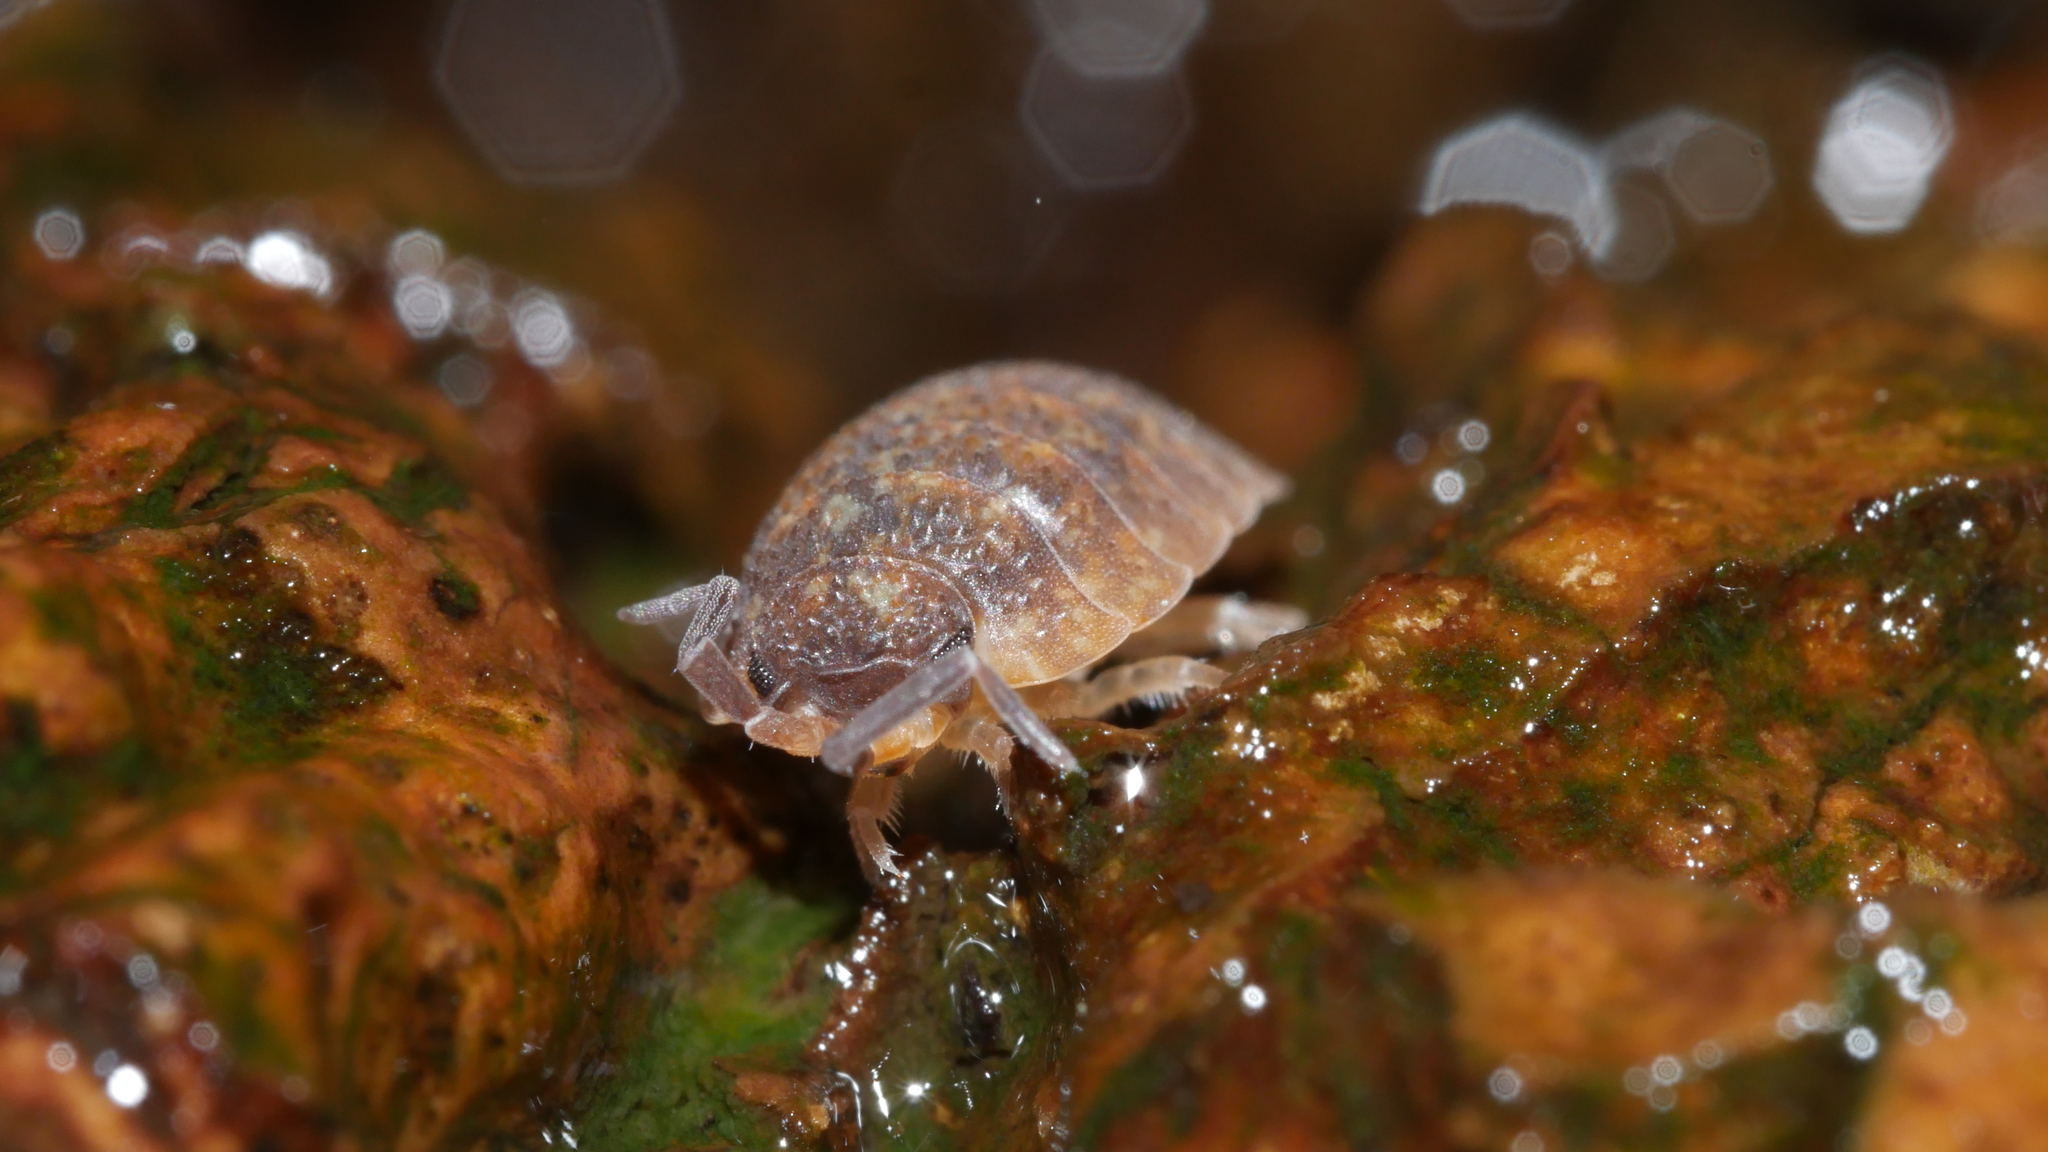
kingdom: Animalia
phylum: Arthropoda
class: Malacostraca
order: Isopoda
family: Porcellionidae
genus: Porcellio
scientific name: Porcellio scaber
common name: Common rough woodlouse
